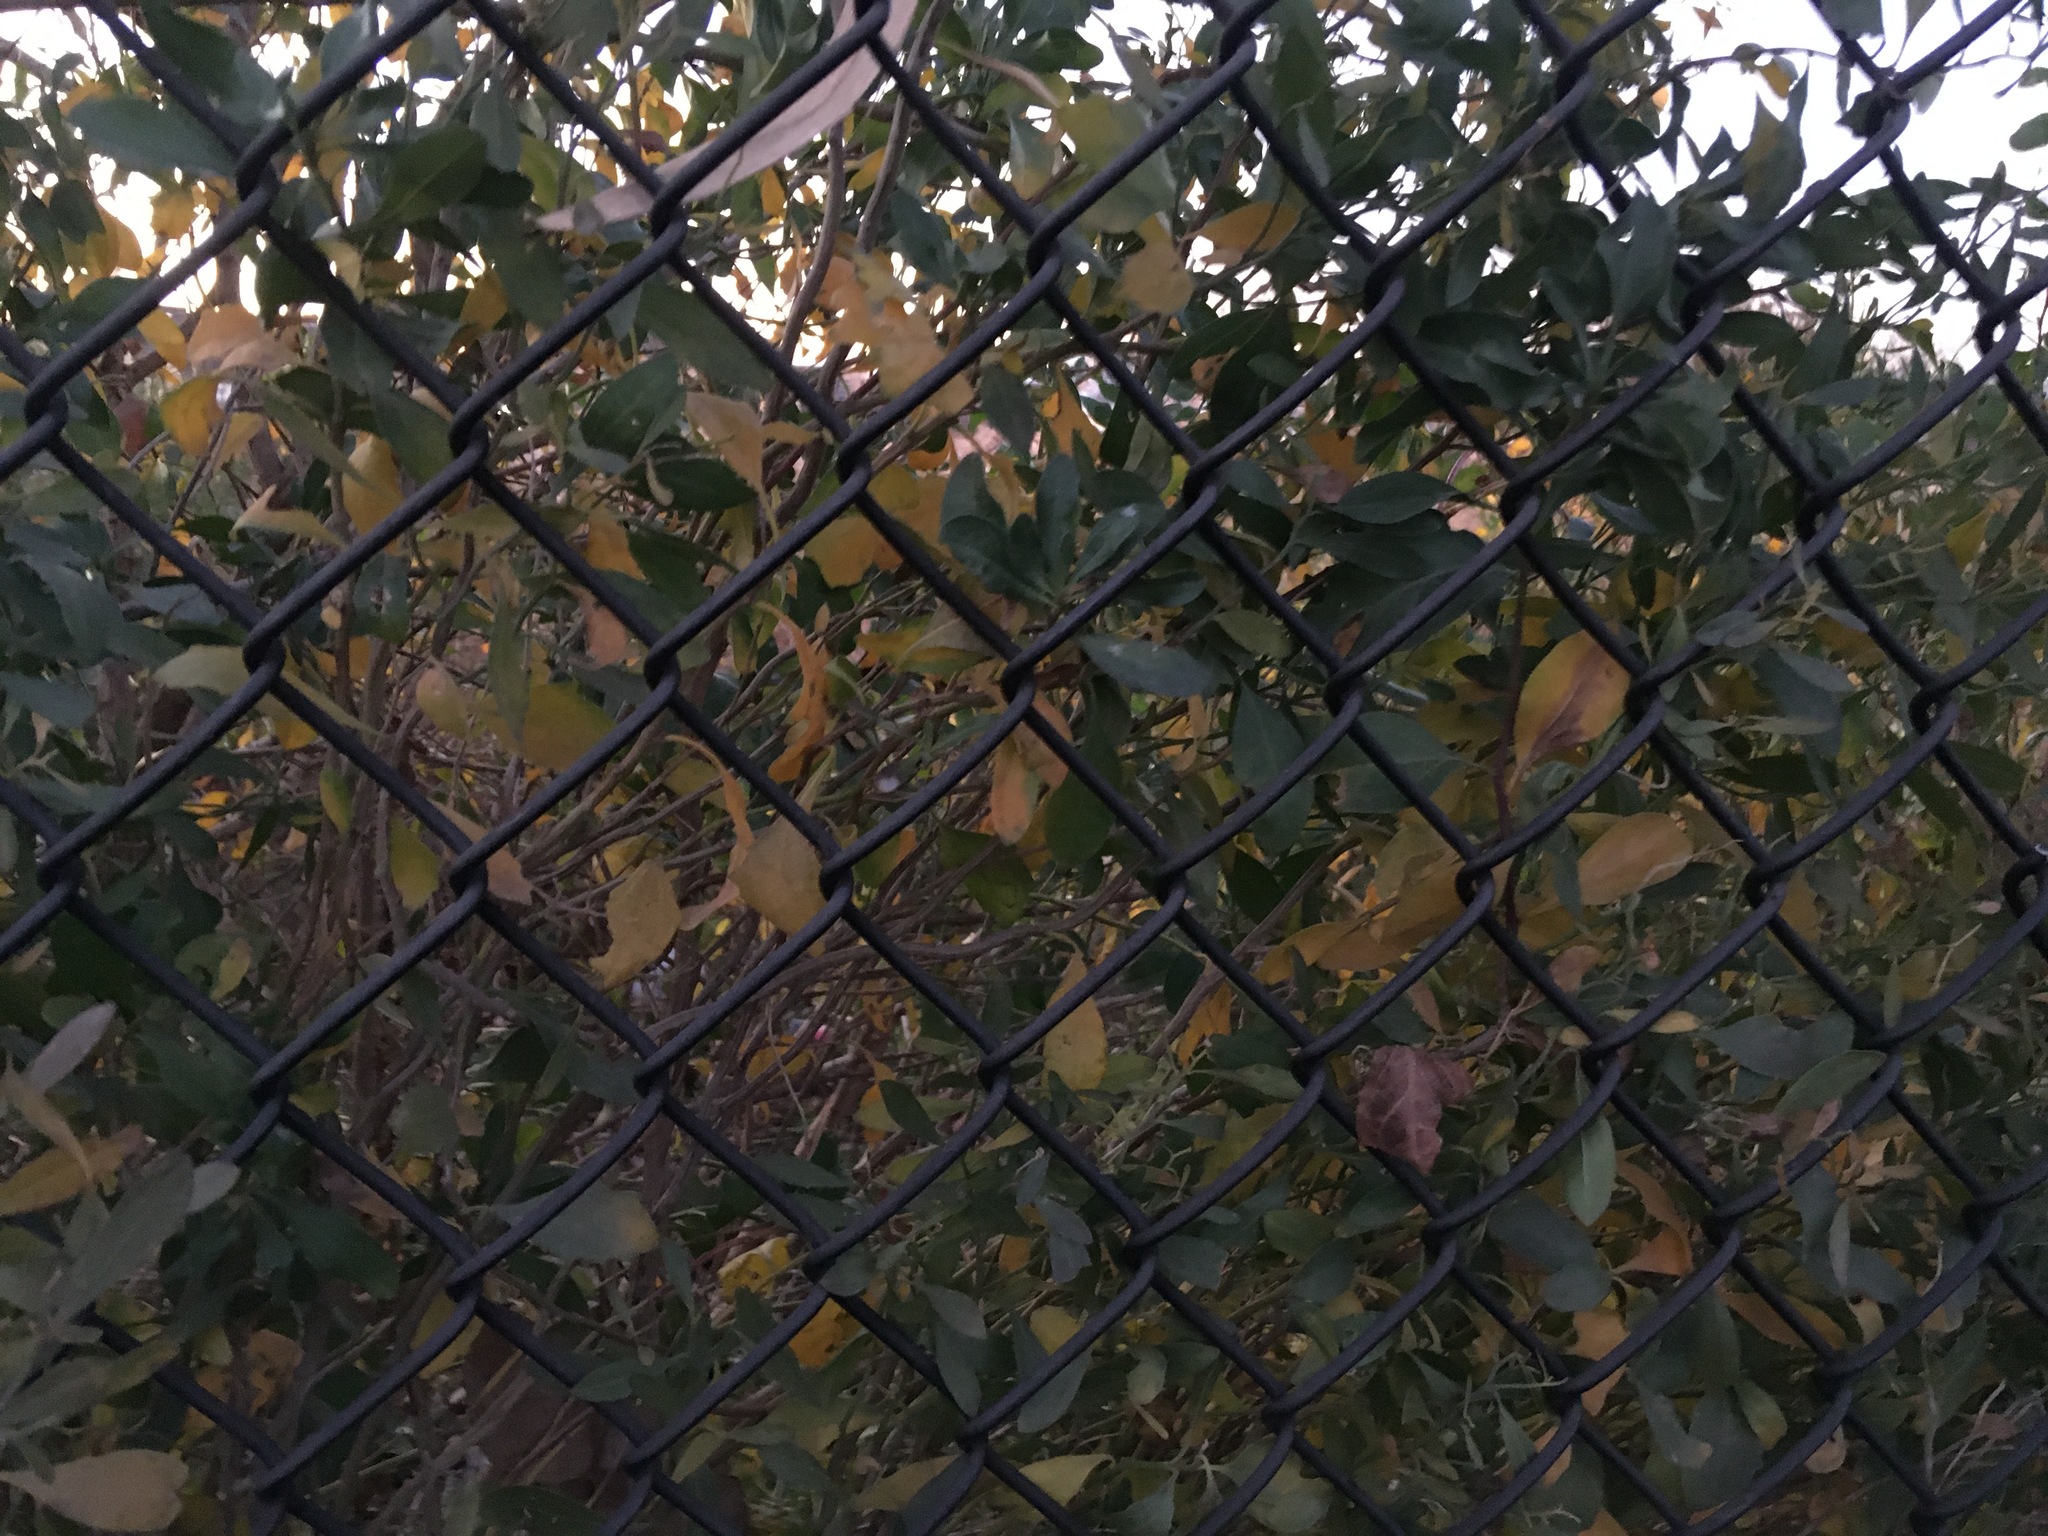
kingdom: Plantae
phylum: Tracheophyta
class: Magnoliopsida
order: Asterales
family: Asteraceae
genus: Baccharis
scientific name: Baccharis halimifolia
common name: Eastern baccharis
